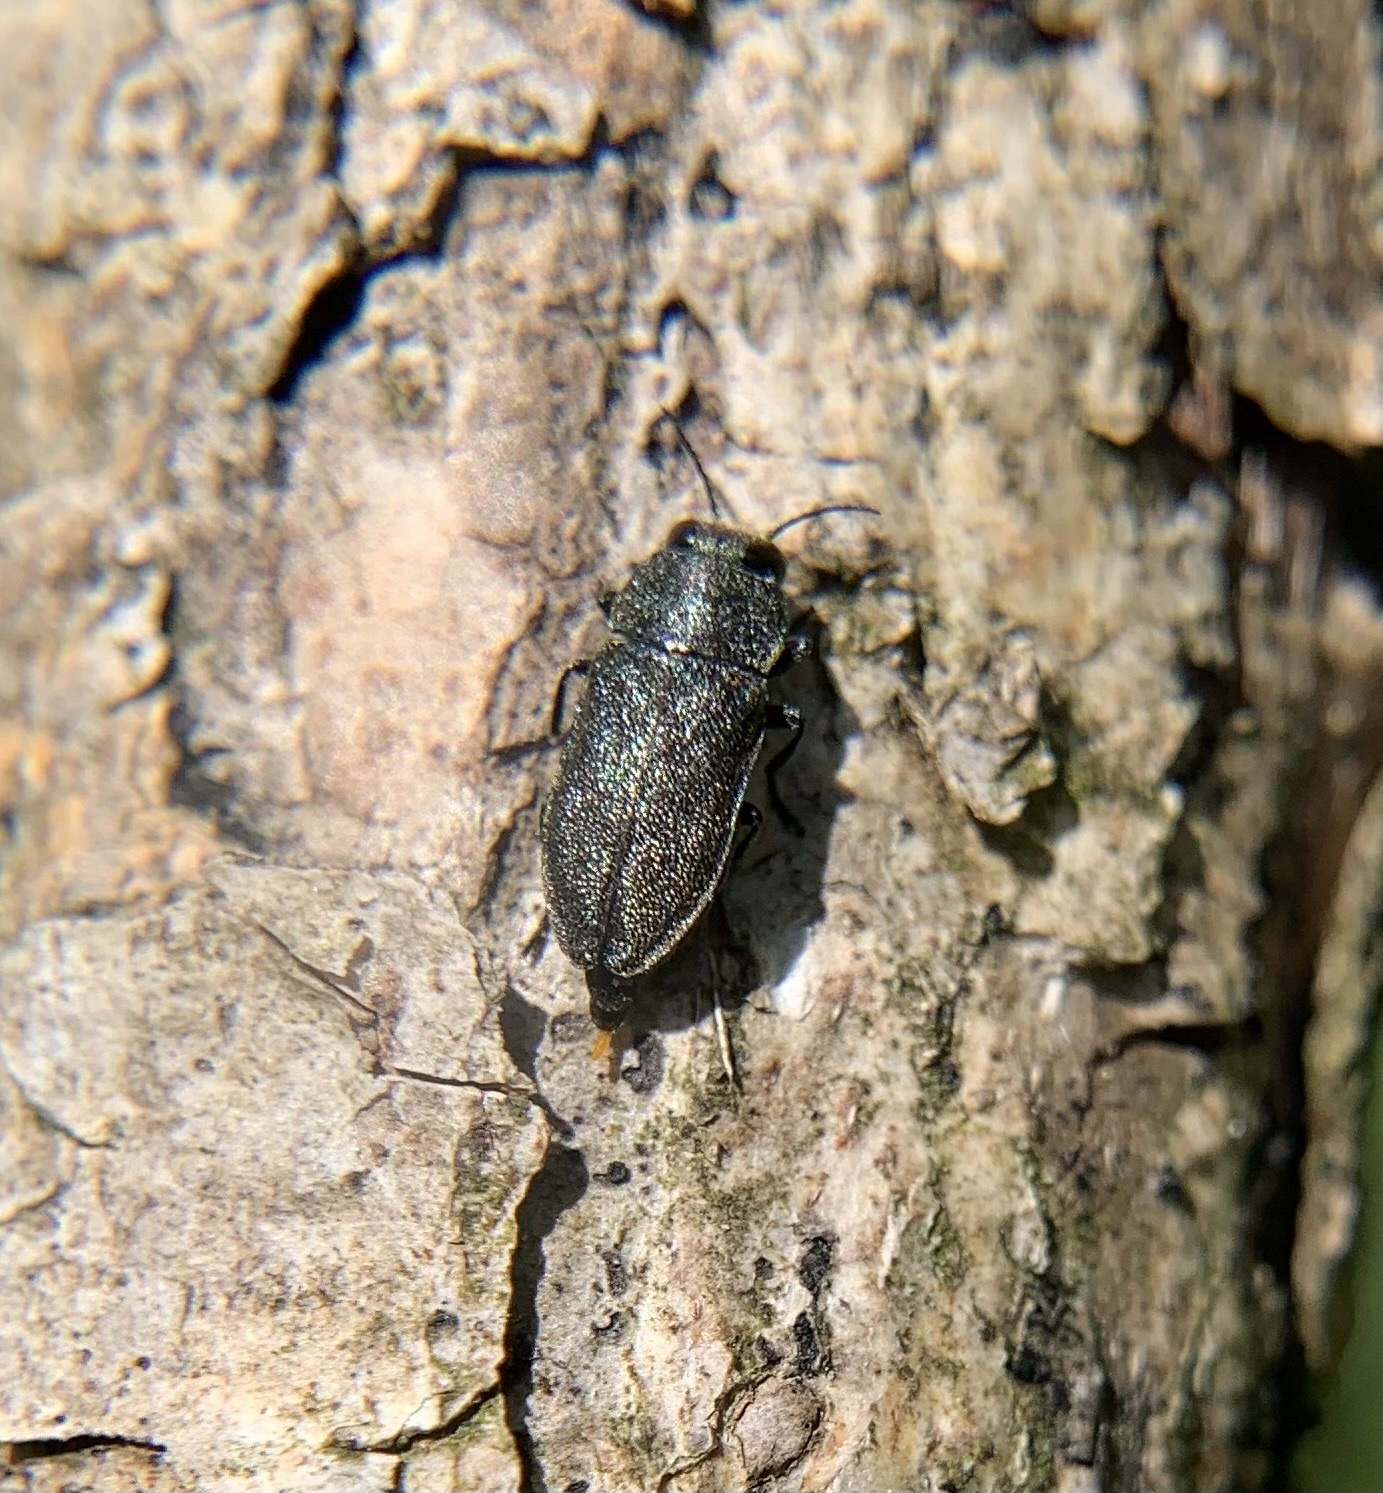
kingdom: Animalia
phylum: Arthropoda
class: Insecta
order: Coleoptera
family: Buprestidae
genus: Anthaxia
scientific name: Anthaxia morio
